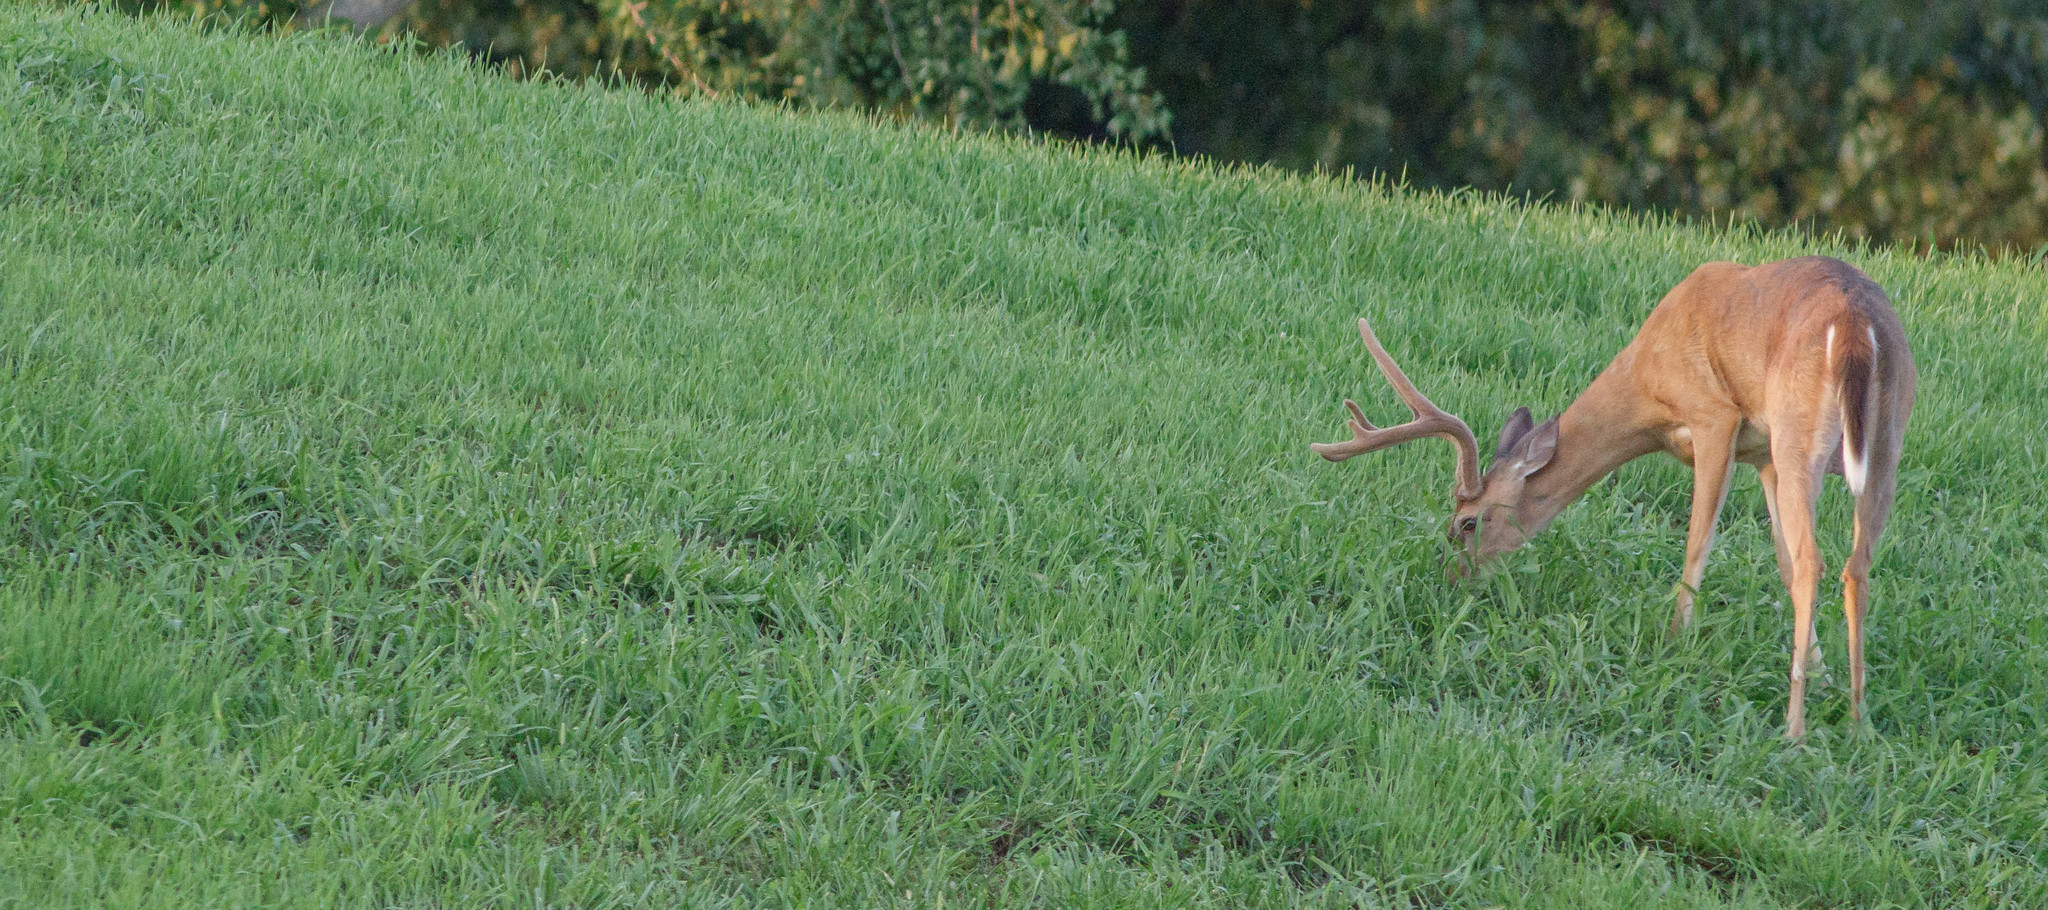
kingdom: Animalia
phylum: Chordata
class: Mammalia
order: Artiodactyla
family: Cervidae
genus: Odocoileus
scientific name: Odocoileus virginianus
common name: White-tailed deer
